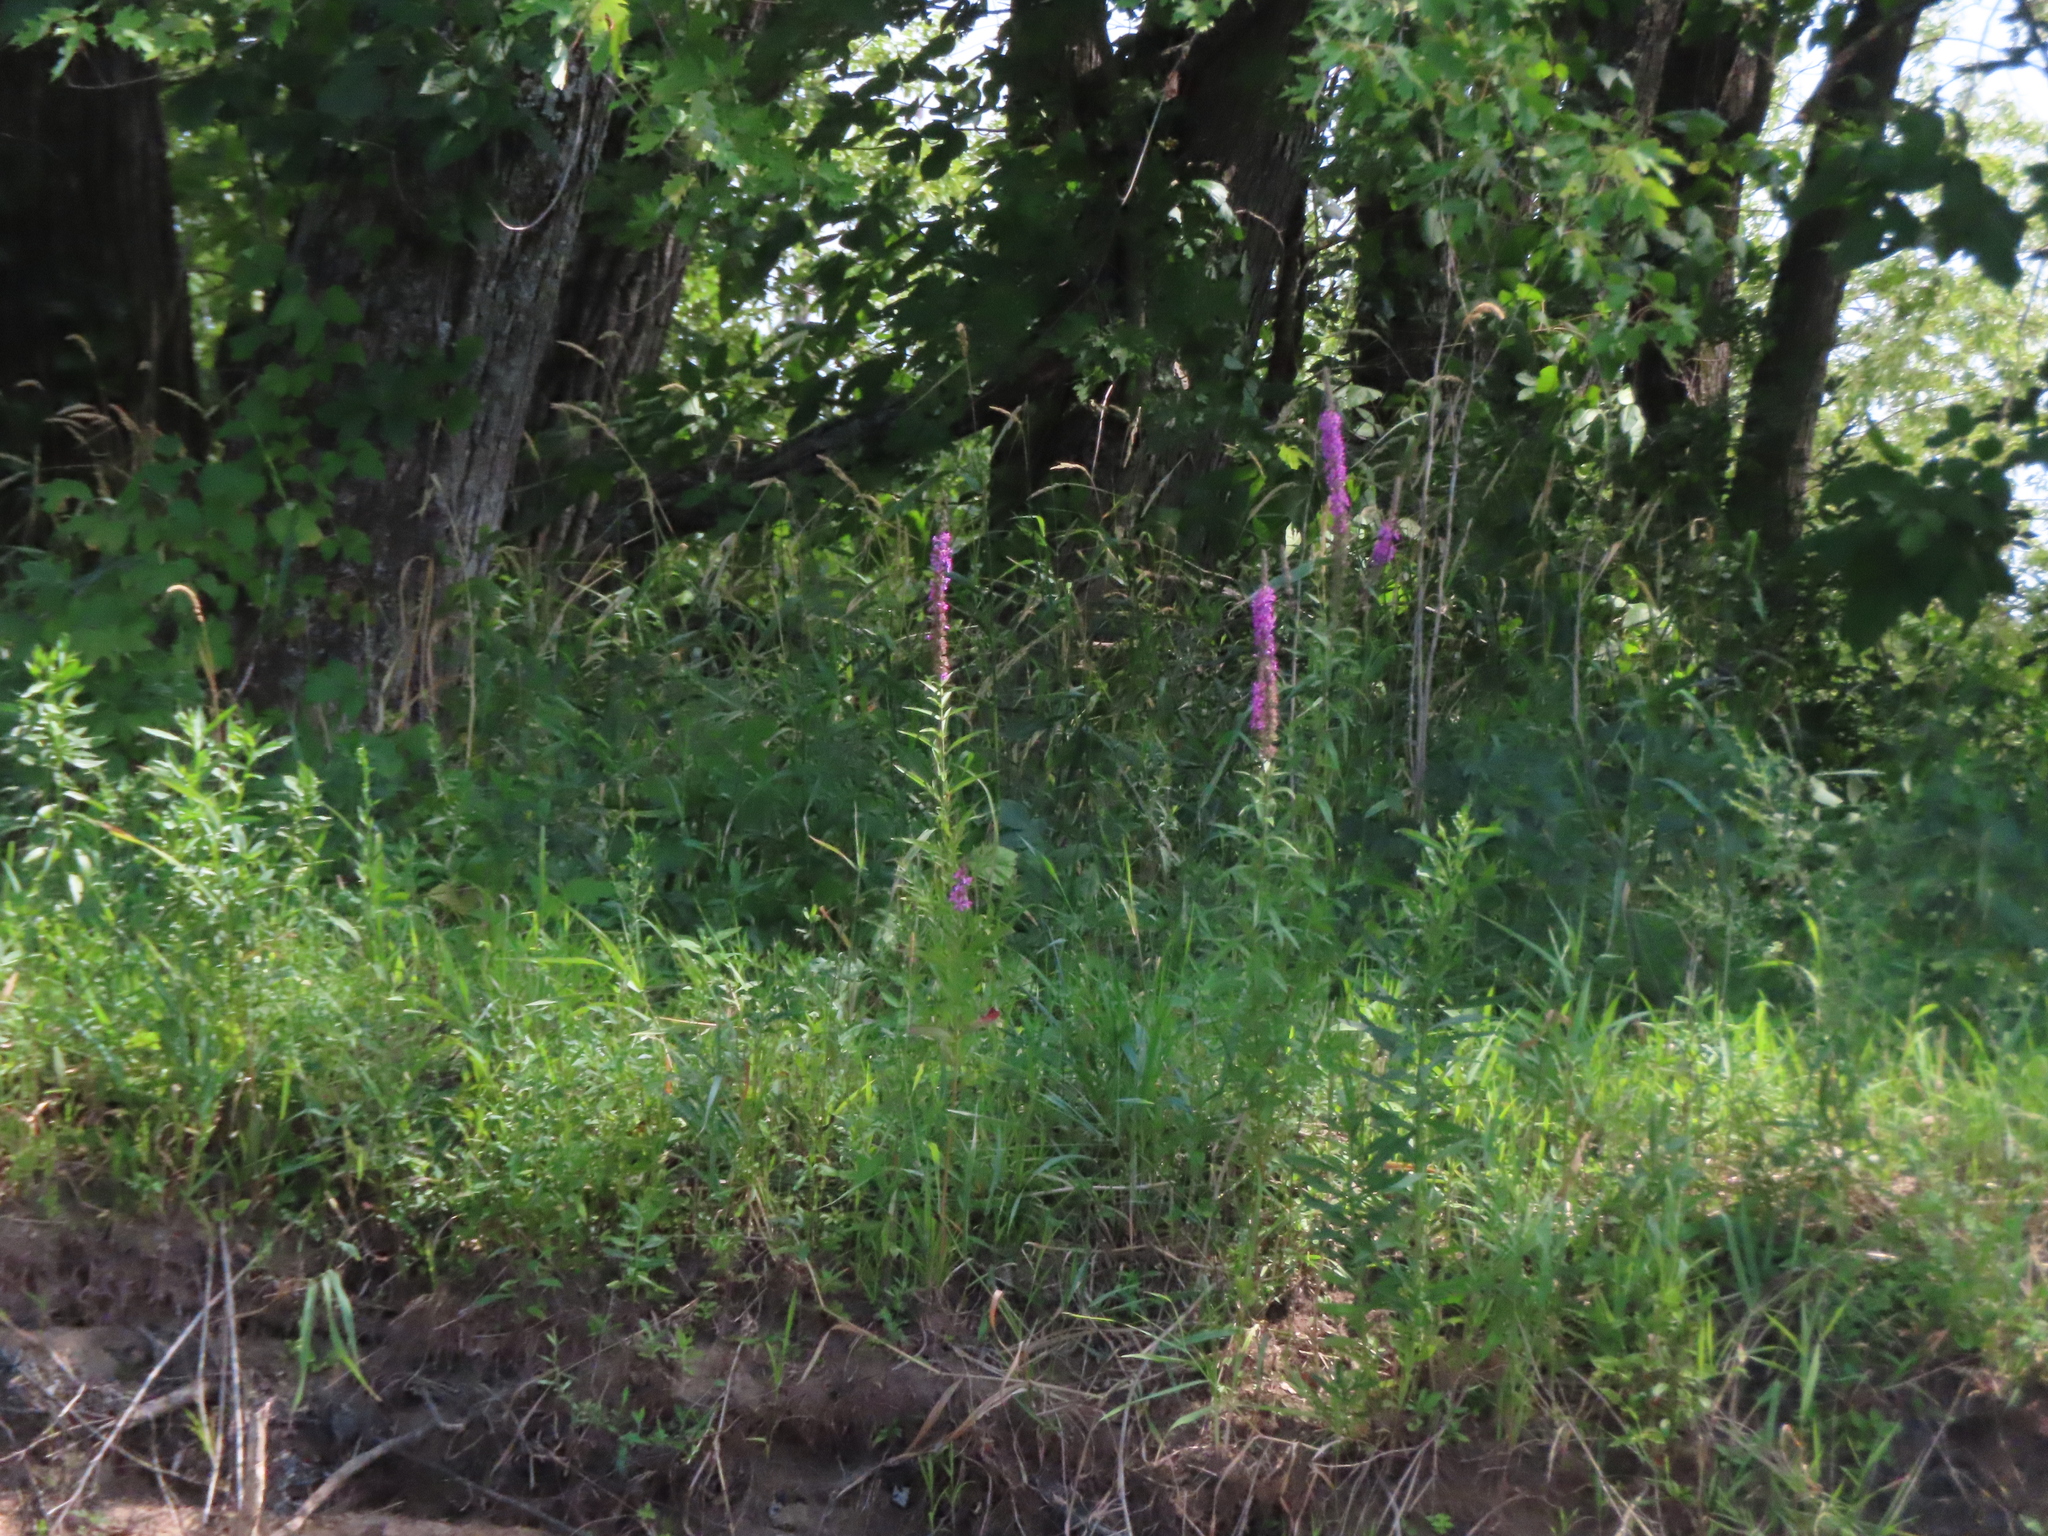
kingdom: Plantae
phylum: Tracheophyta
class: Magnoliopsida
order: Myrtales
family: Lythraceae
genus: Lythrum
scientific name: Lythrum salicaria
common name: Purple loosestrife
